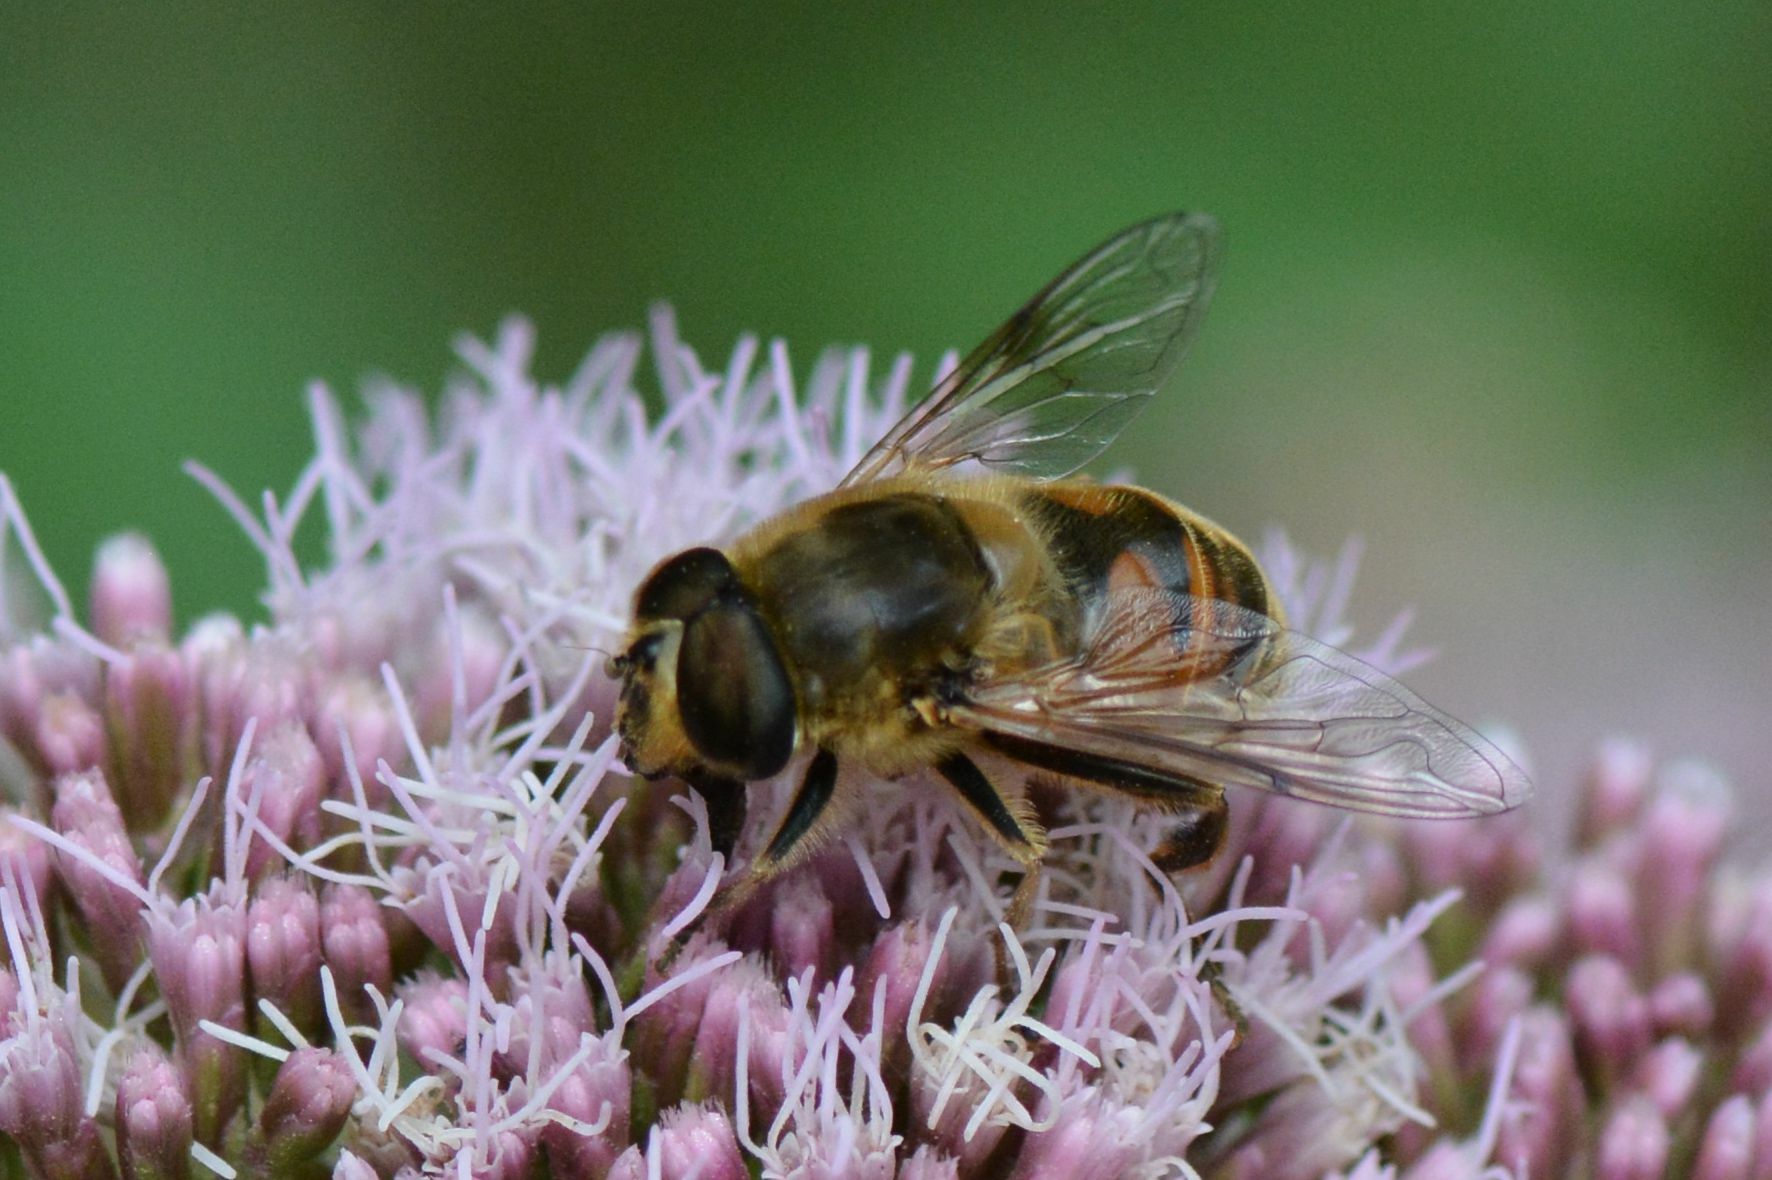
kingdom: Animalia
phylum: Arthropoda
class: Insecta
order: Diptera
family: Syrphidae
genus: Eristalis
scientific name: Eristalis tenax
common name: Drone fly
